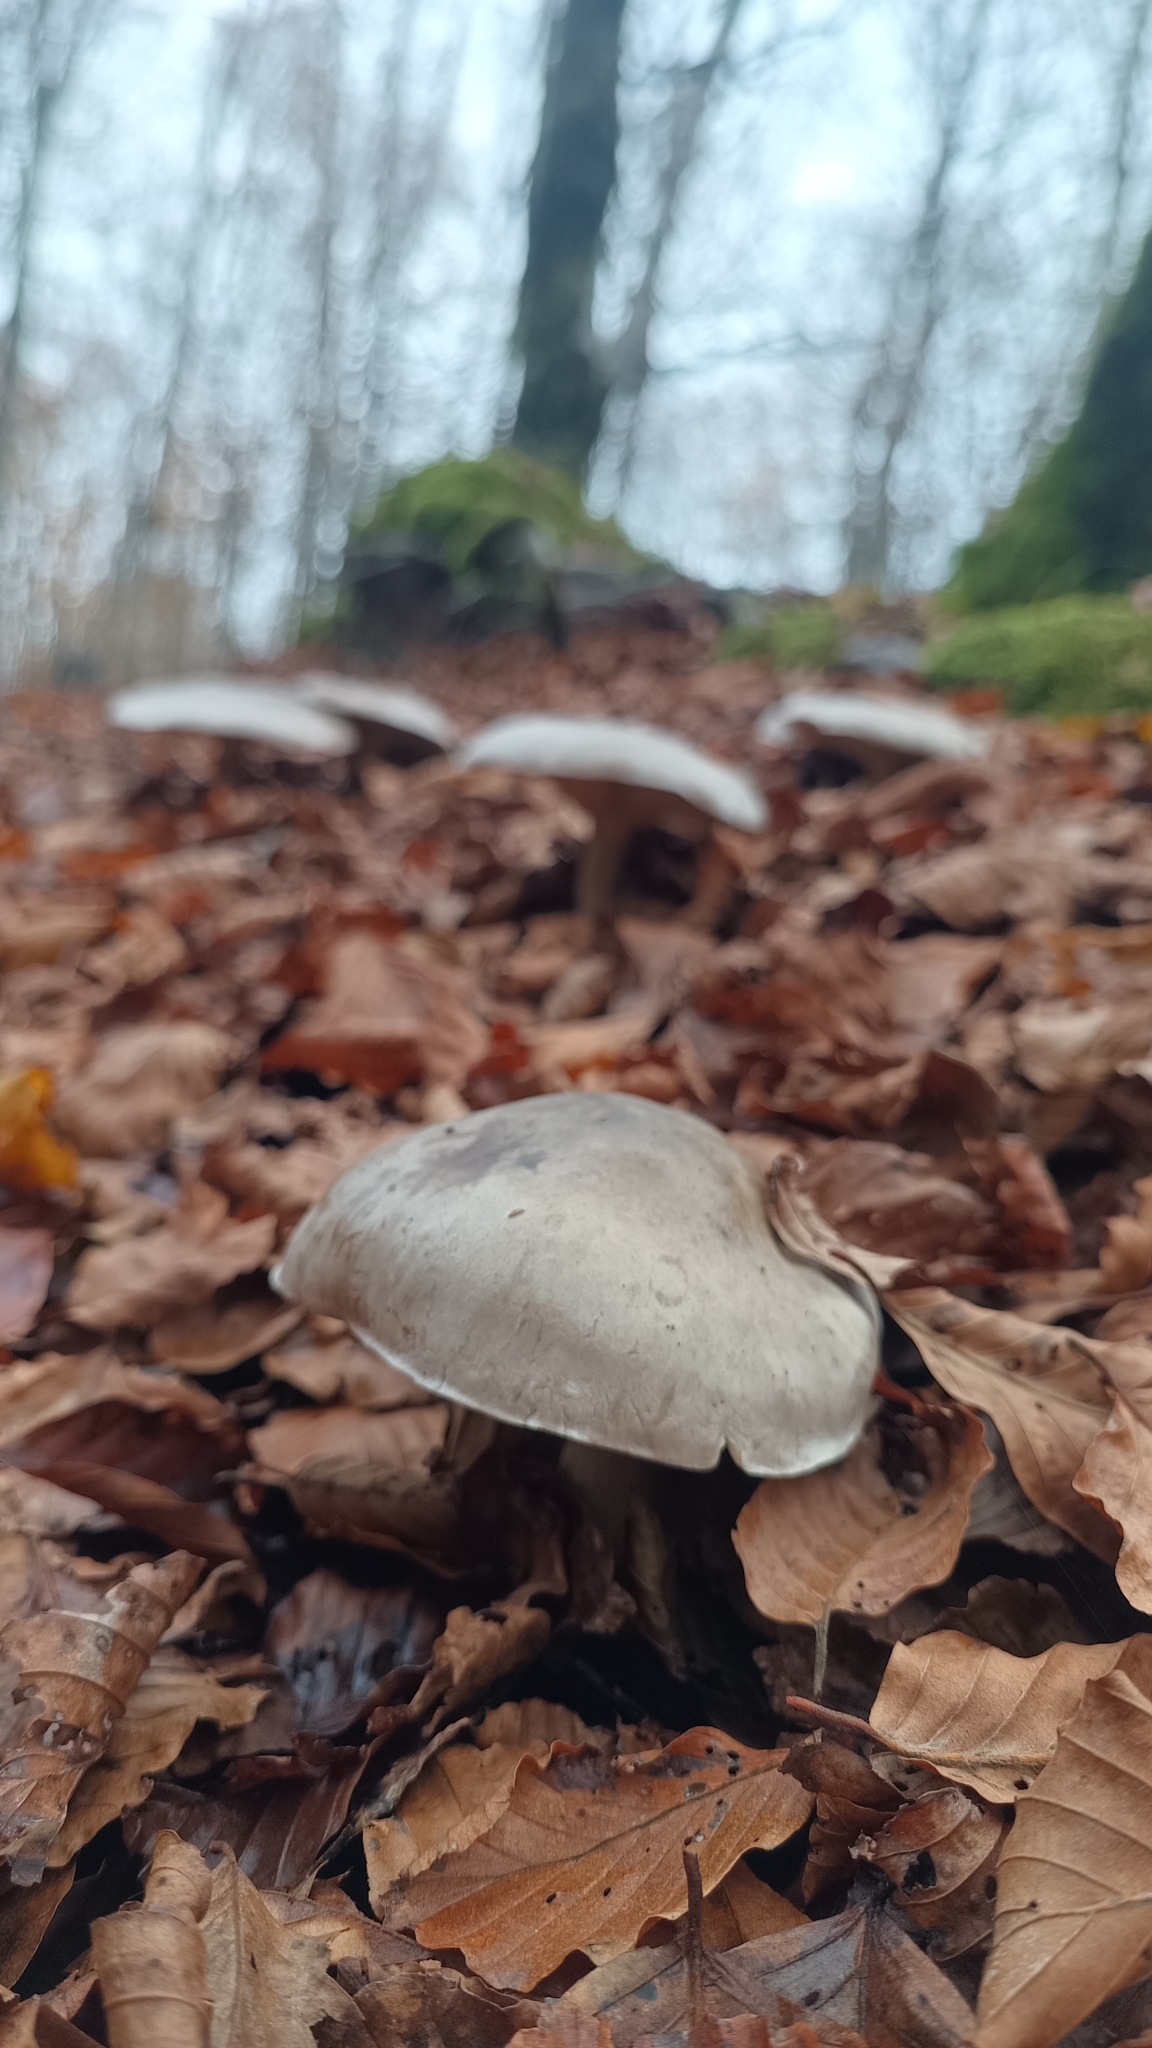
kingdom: Fungi
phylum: Basidiomycota
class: Agaricomycetes
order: Agaricales
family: Tricholomataceae
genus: Clitocybe
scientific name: Clitocybe nebularis
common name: Clouded agaric
